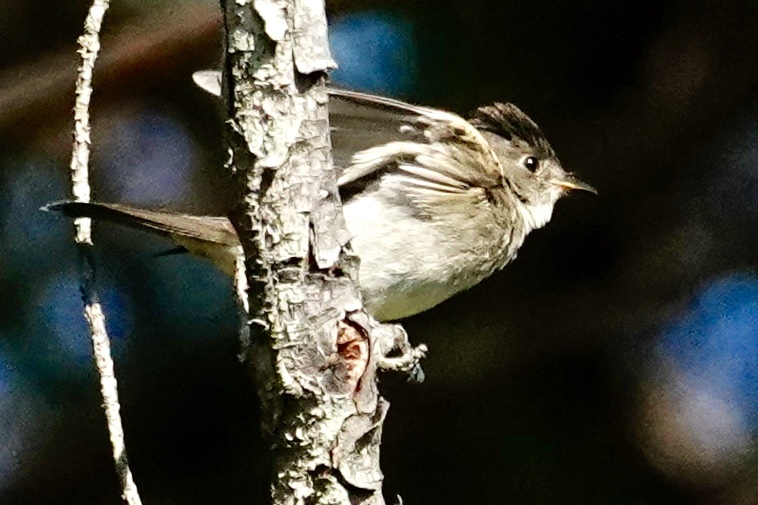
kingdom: Animalia
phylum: Chordata
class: Aves
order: Passeriformes
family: Tyrannidae
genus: Contopus
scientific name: Contopus virens
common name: Eastern wood-pewee
